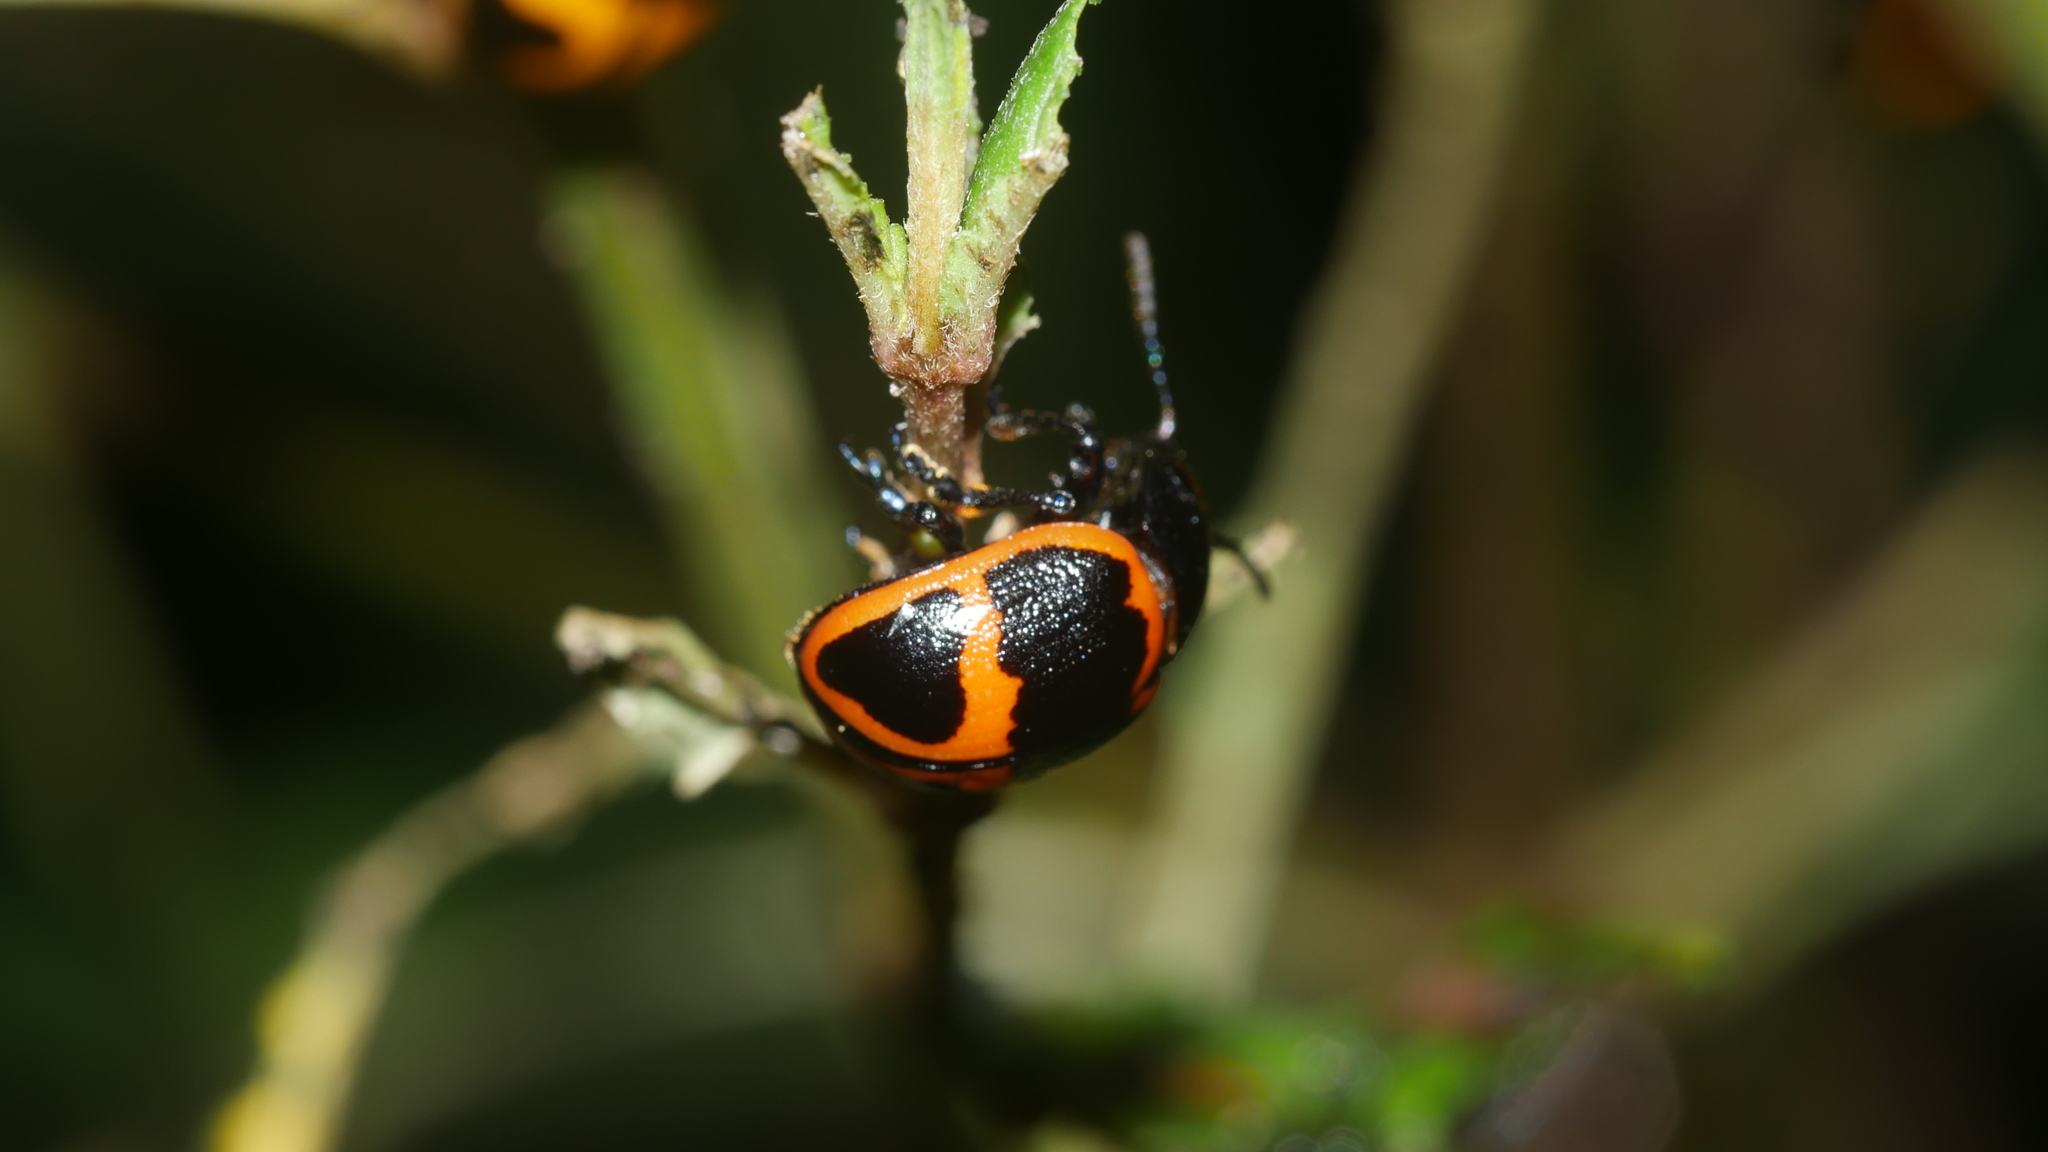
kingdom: Animalia
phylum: Arthropoda
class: Insecta
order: Coleoptera
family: Chrysomelidae
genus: Labidomera
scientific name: Labidomera clivicollis
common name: Swamp milkweed leaf beetle
